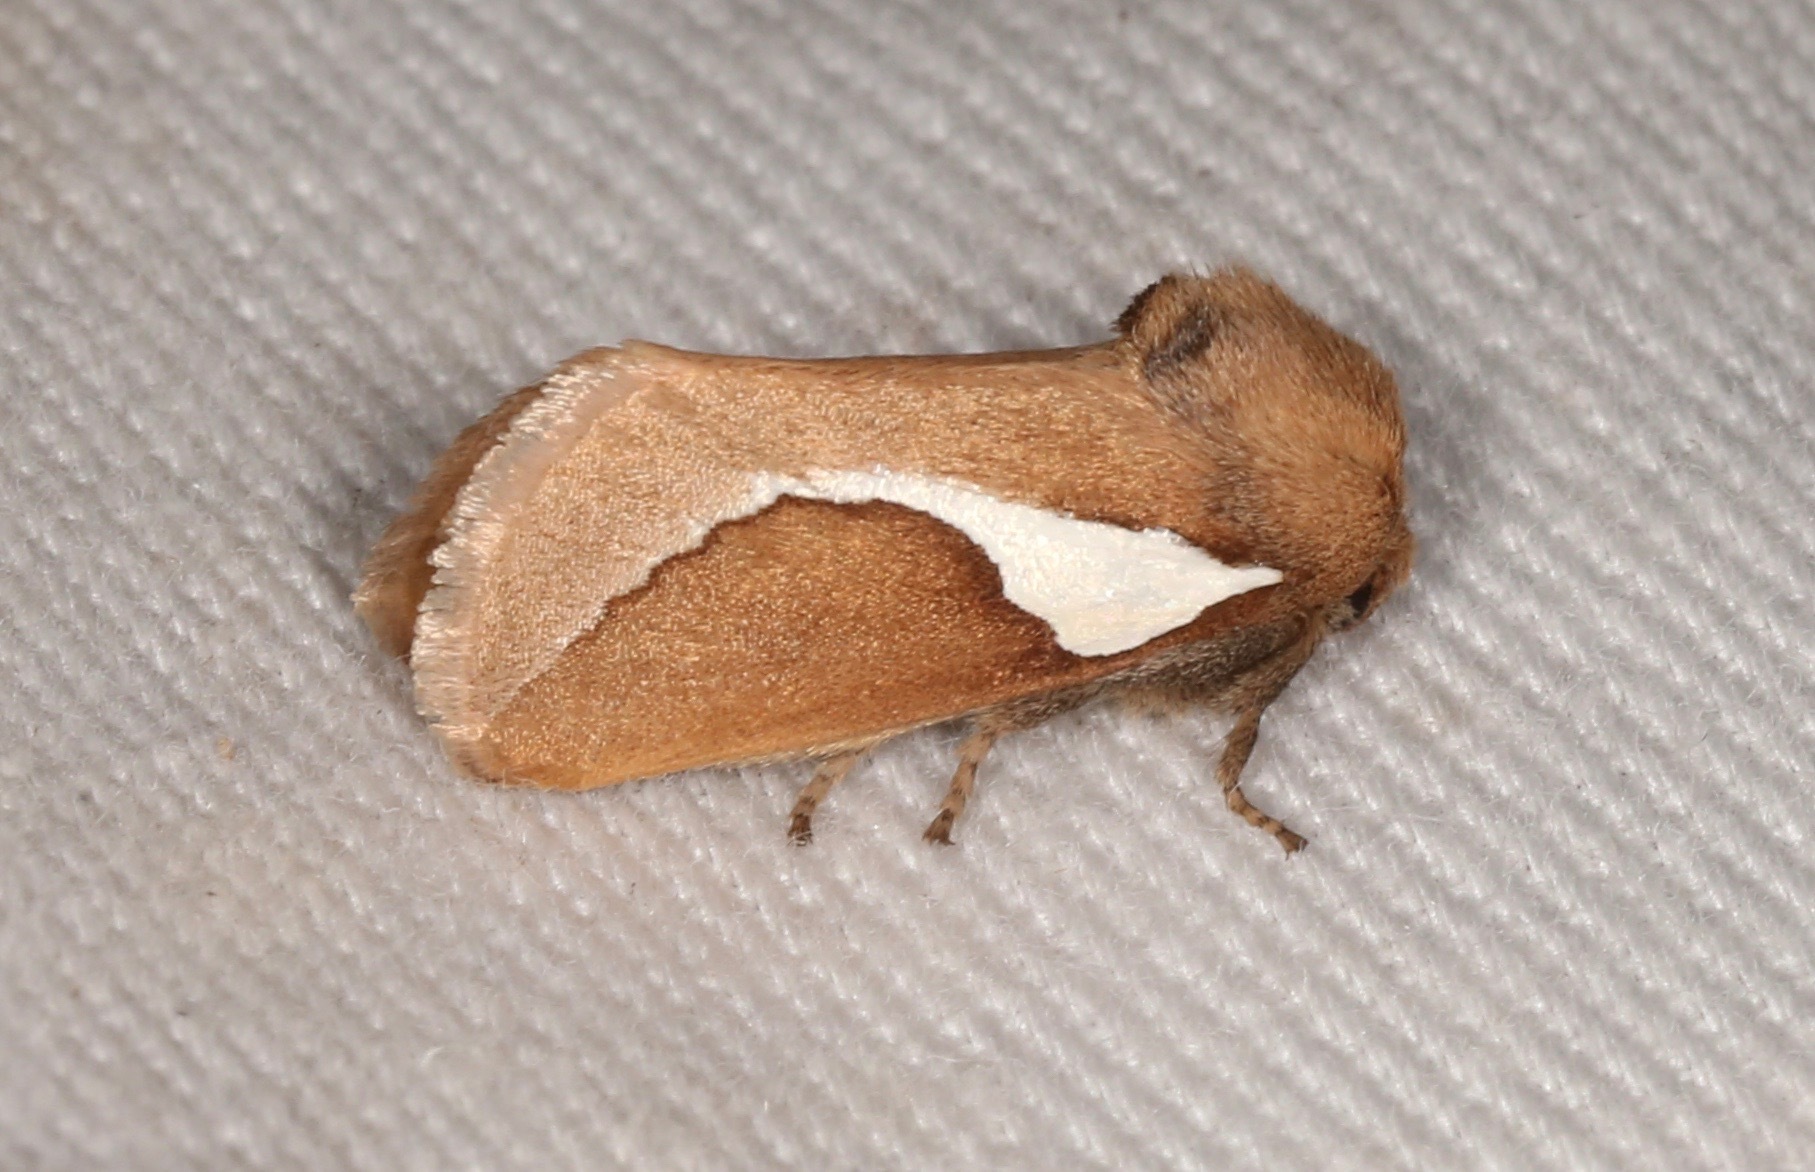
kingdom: Animalia
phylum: Arthropoda
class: Insecta
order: Lepidoptera
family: Limacodidae
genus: Prolimacodes
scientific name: Prolimacodes trigona
